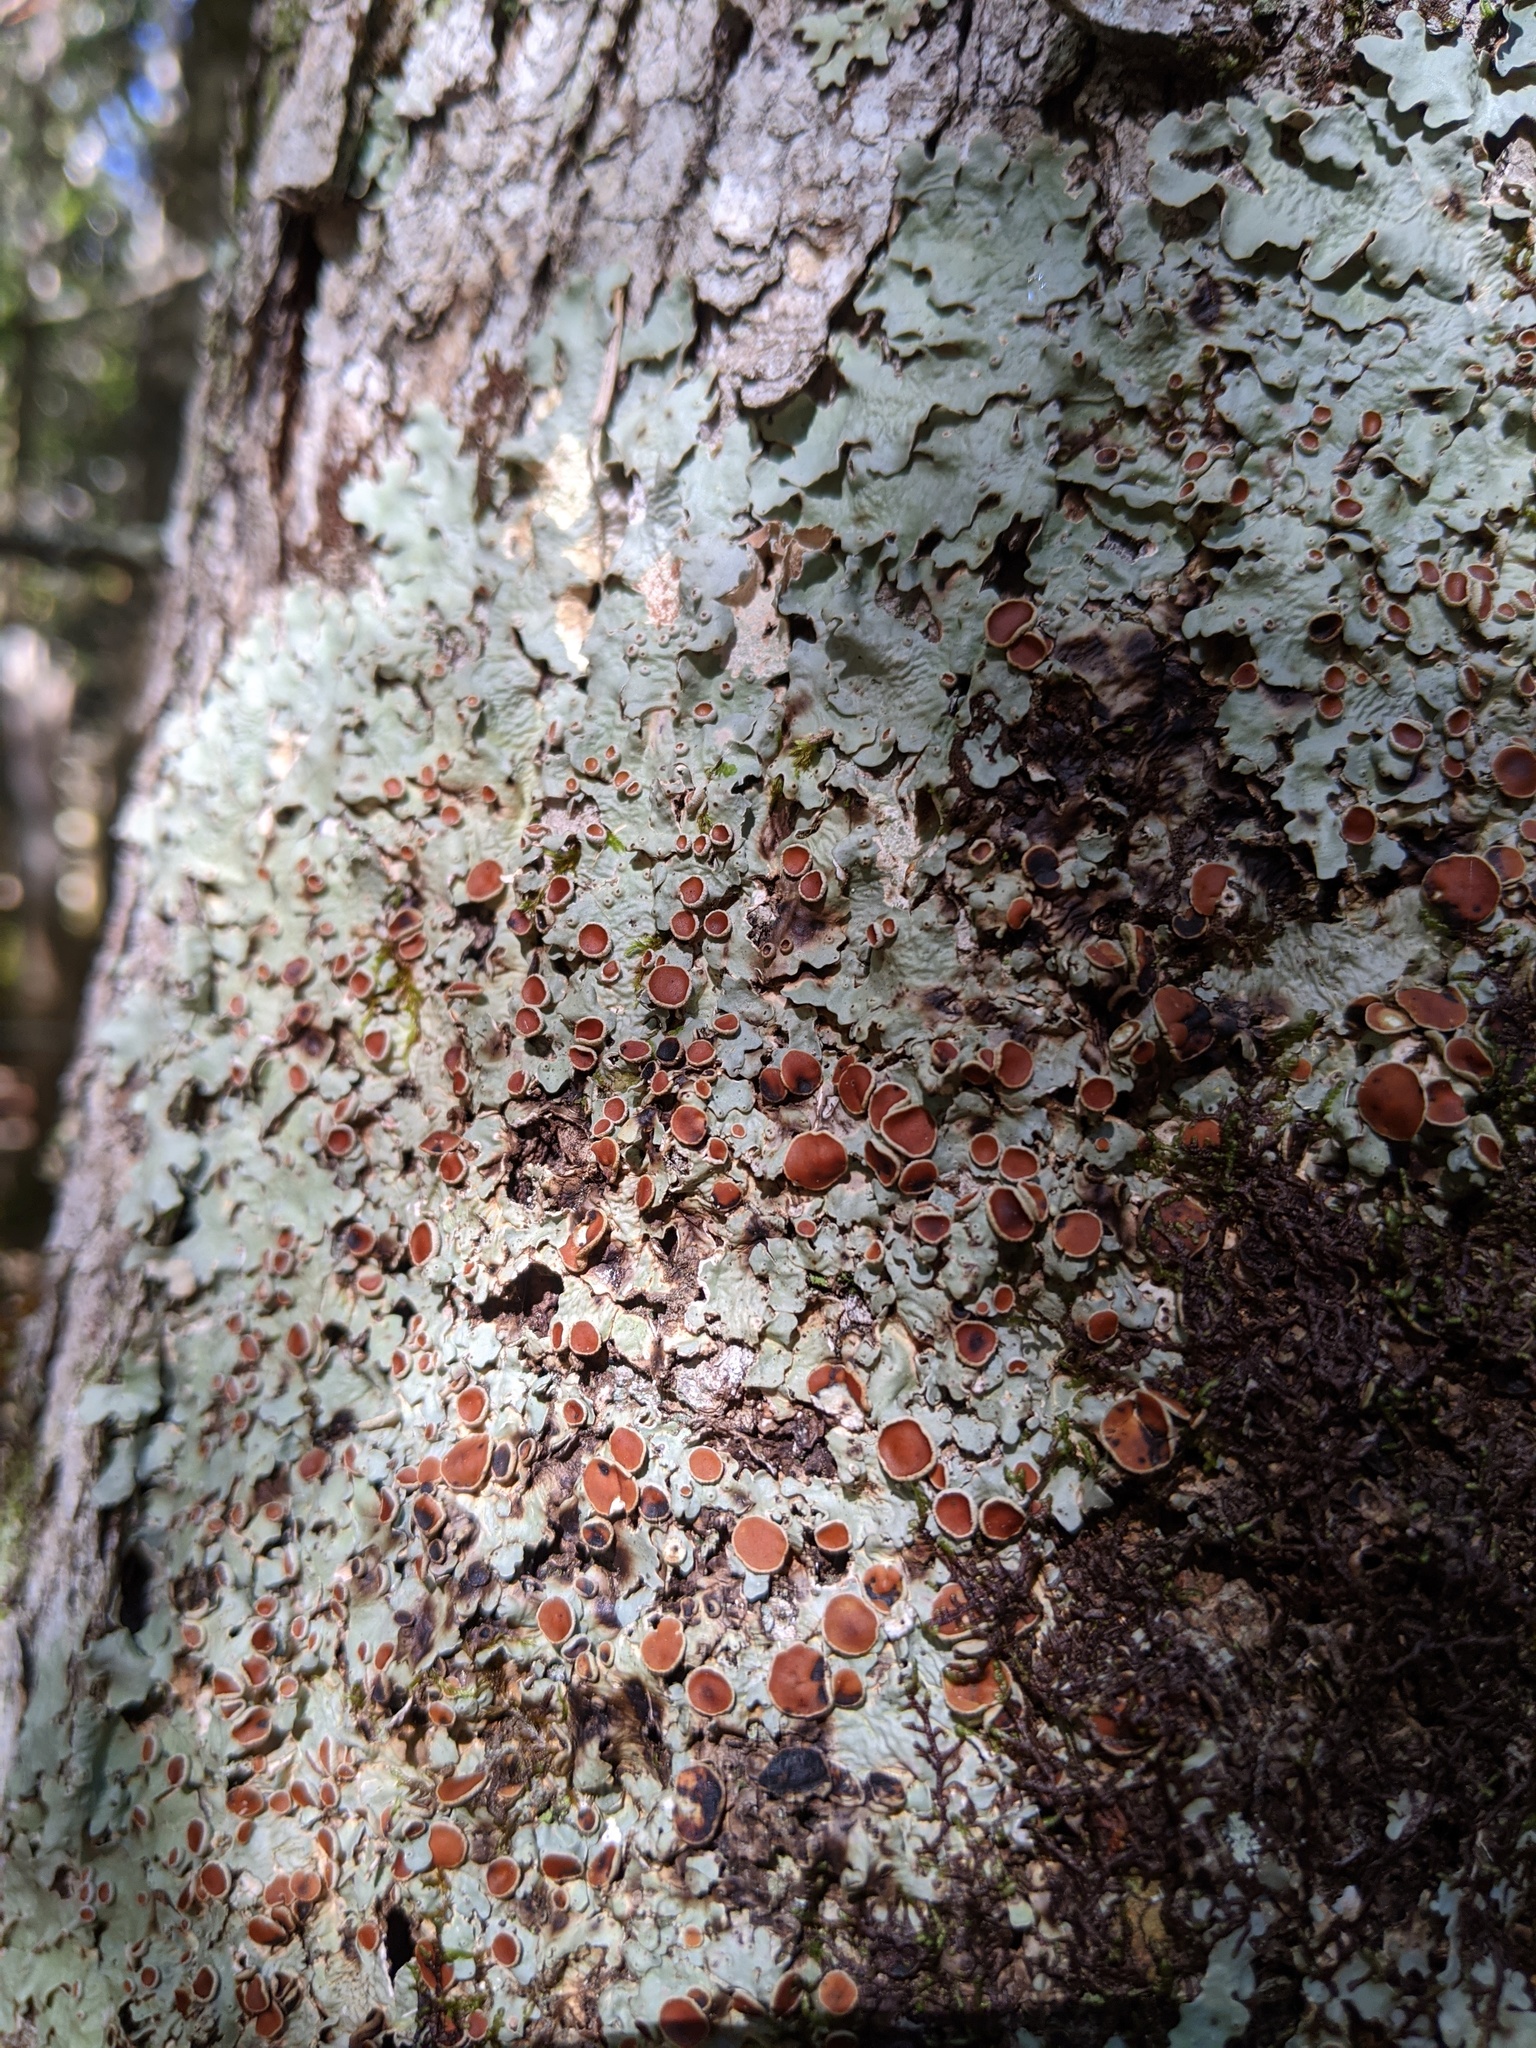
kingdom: Fungi
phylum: Ascomycota
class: Lecanoromycetes
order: Peltigerales
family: Lobariaceae
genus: Ricasolia
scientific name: Ricasolia quercizans
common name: Smooth lungwort
